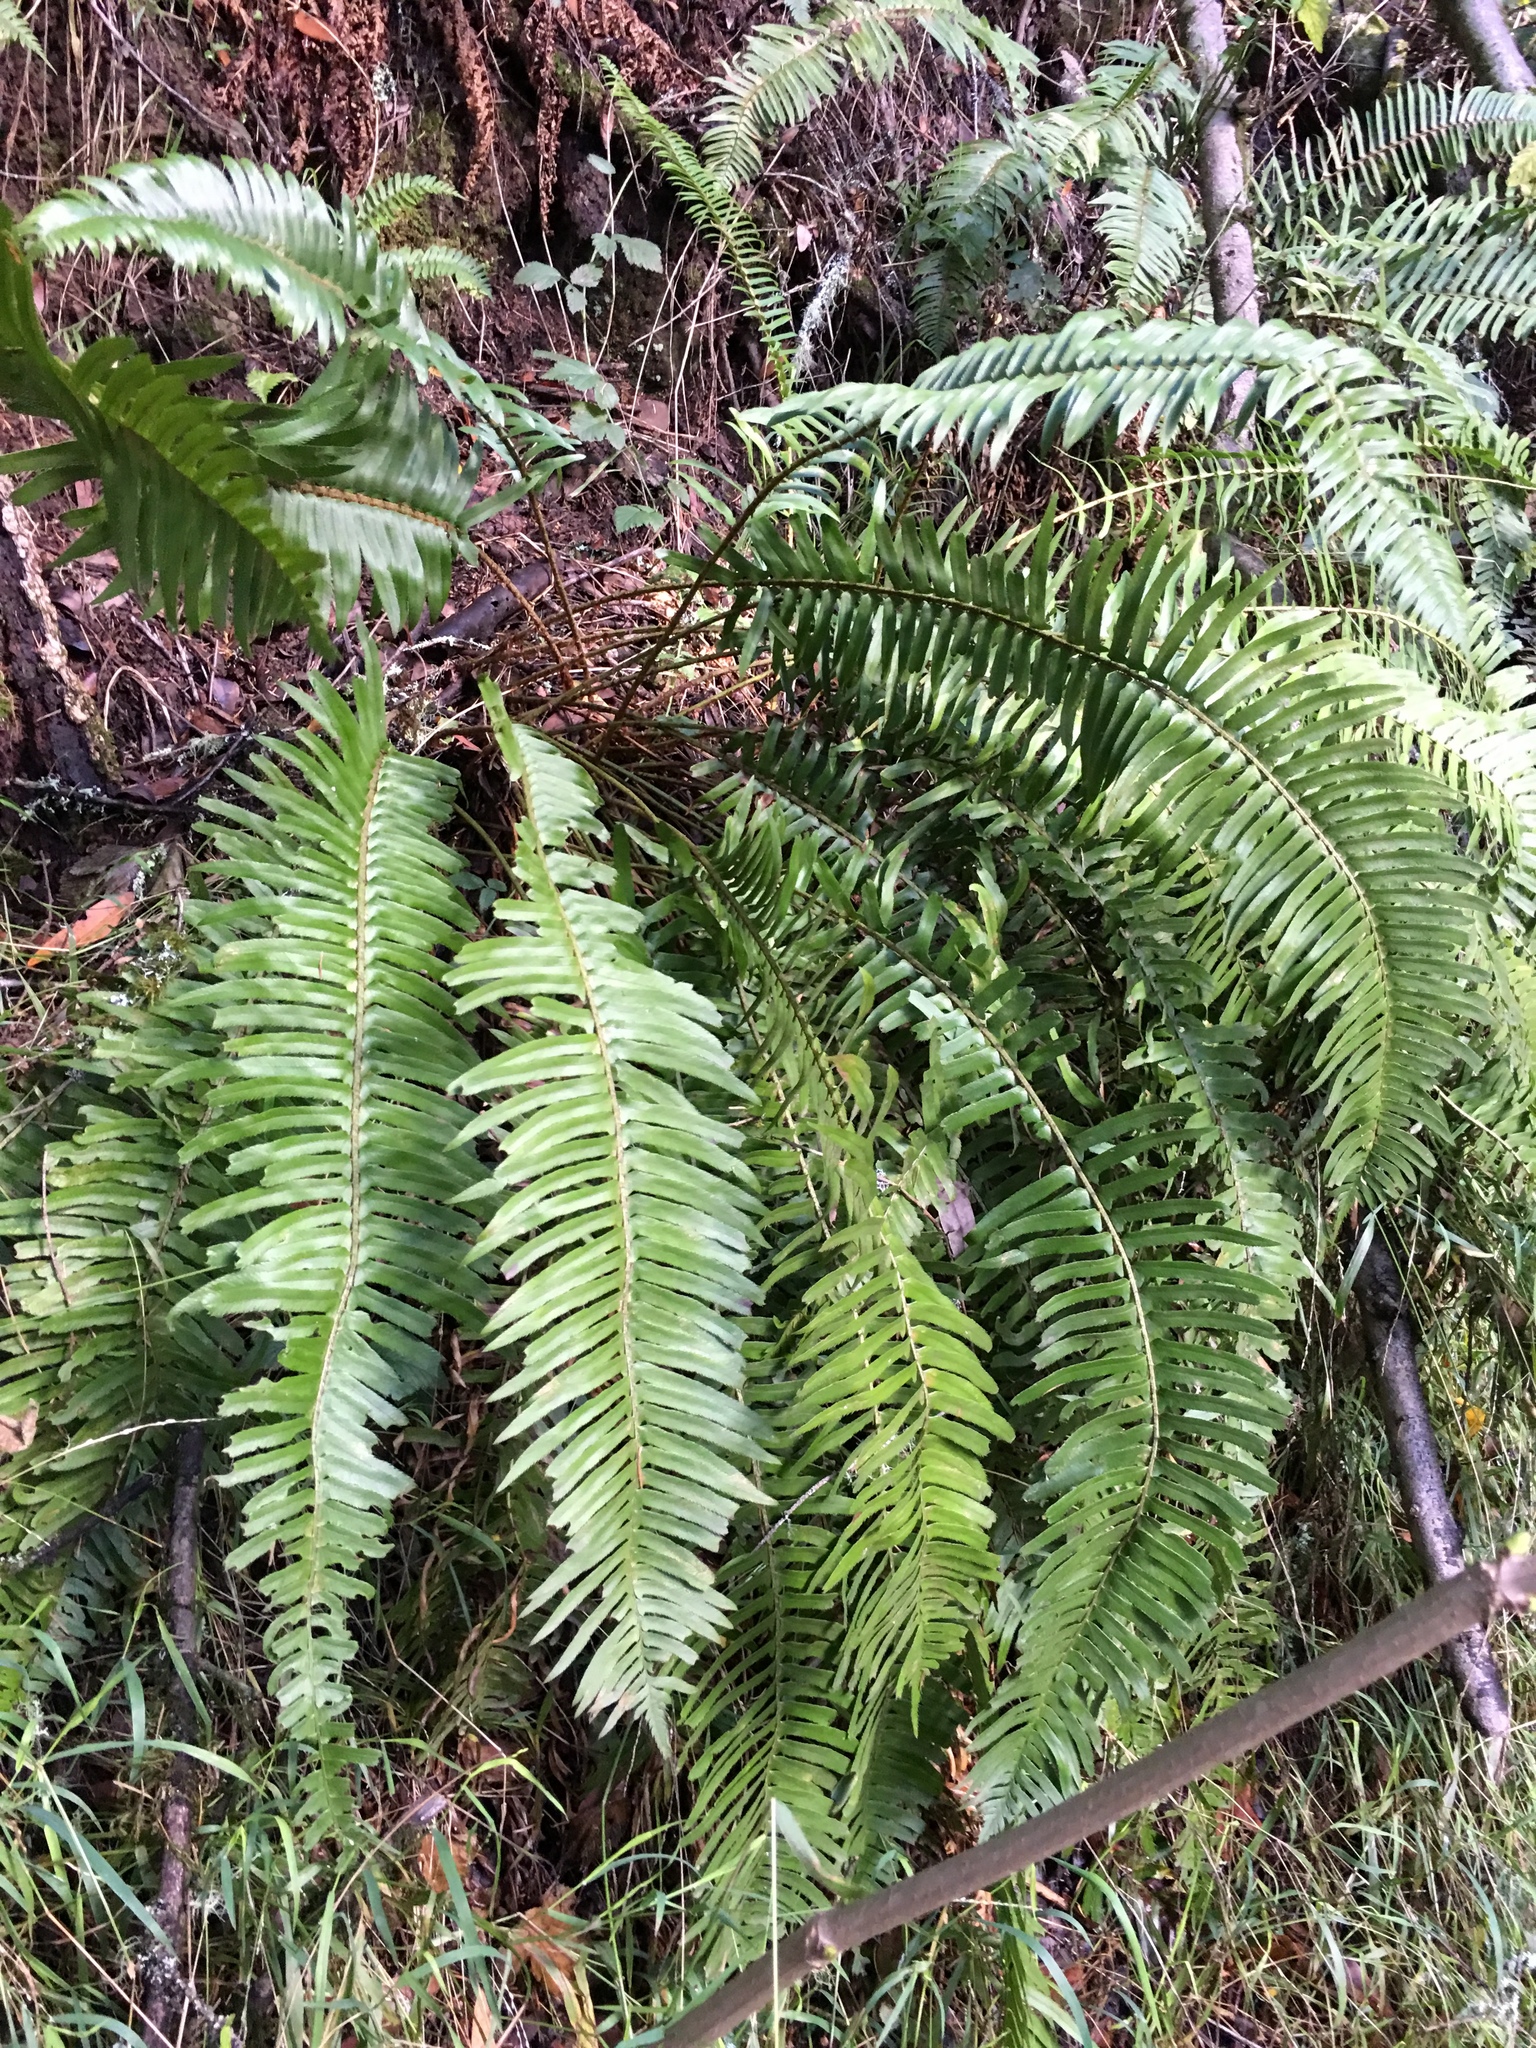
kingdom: Plantae
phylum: Tracheophyta
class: Polypodiopsida
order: Polypodiales
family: Dryopteridaceae
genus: Polystichum
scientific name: Polystichum munitum
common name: Western sword-fern
